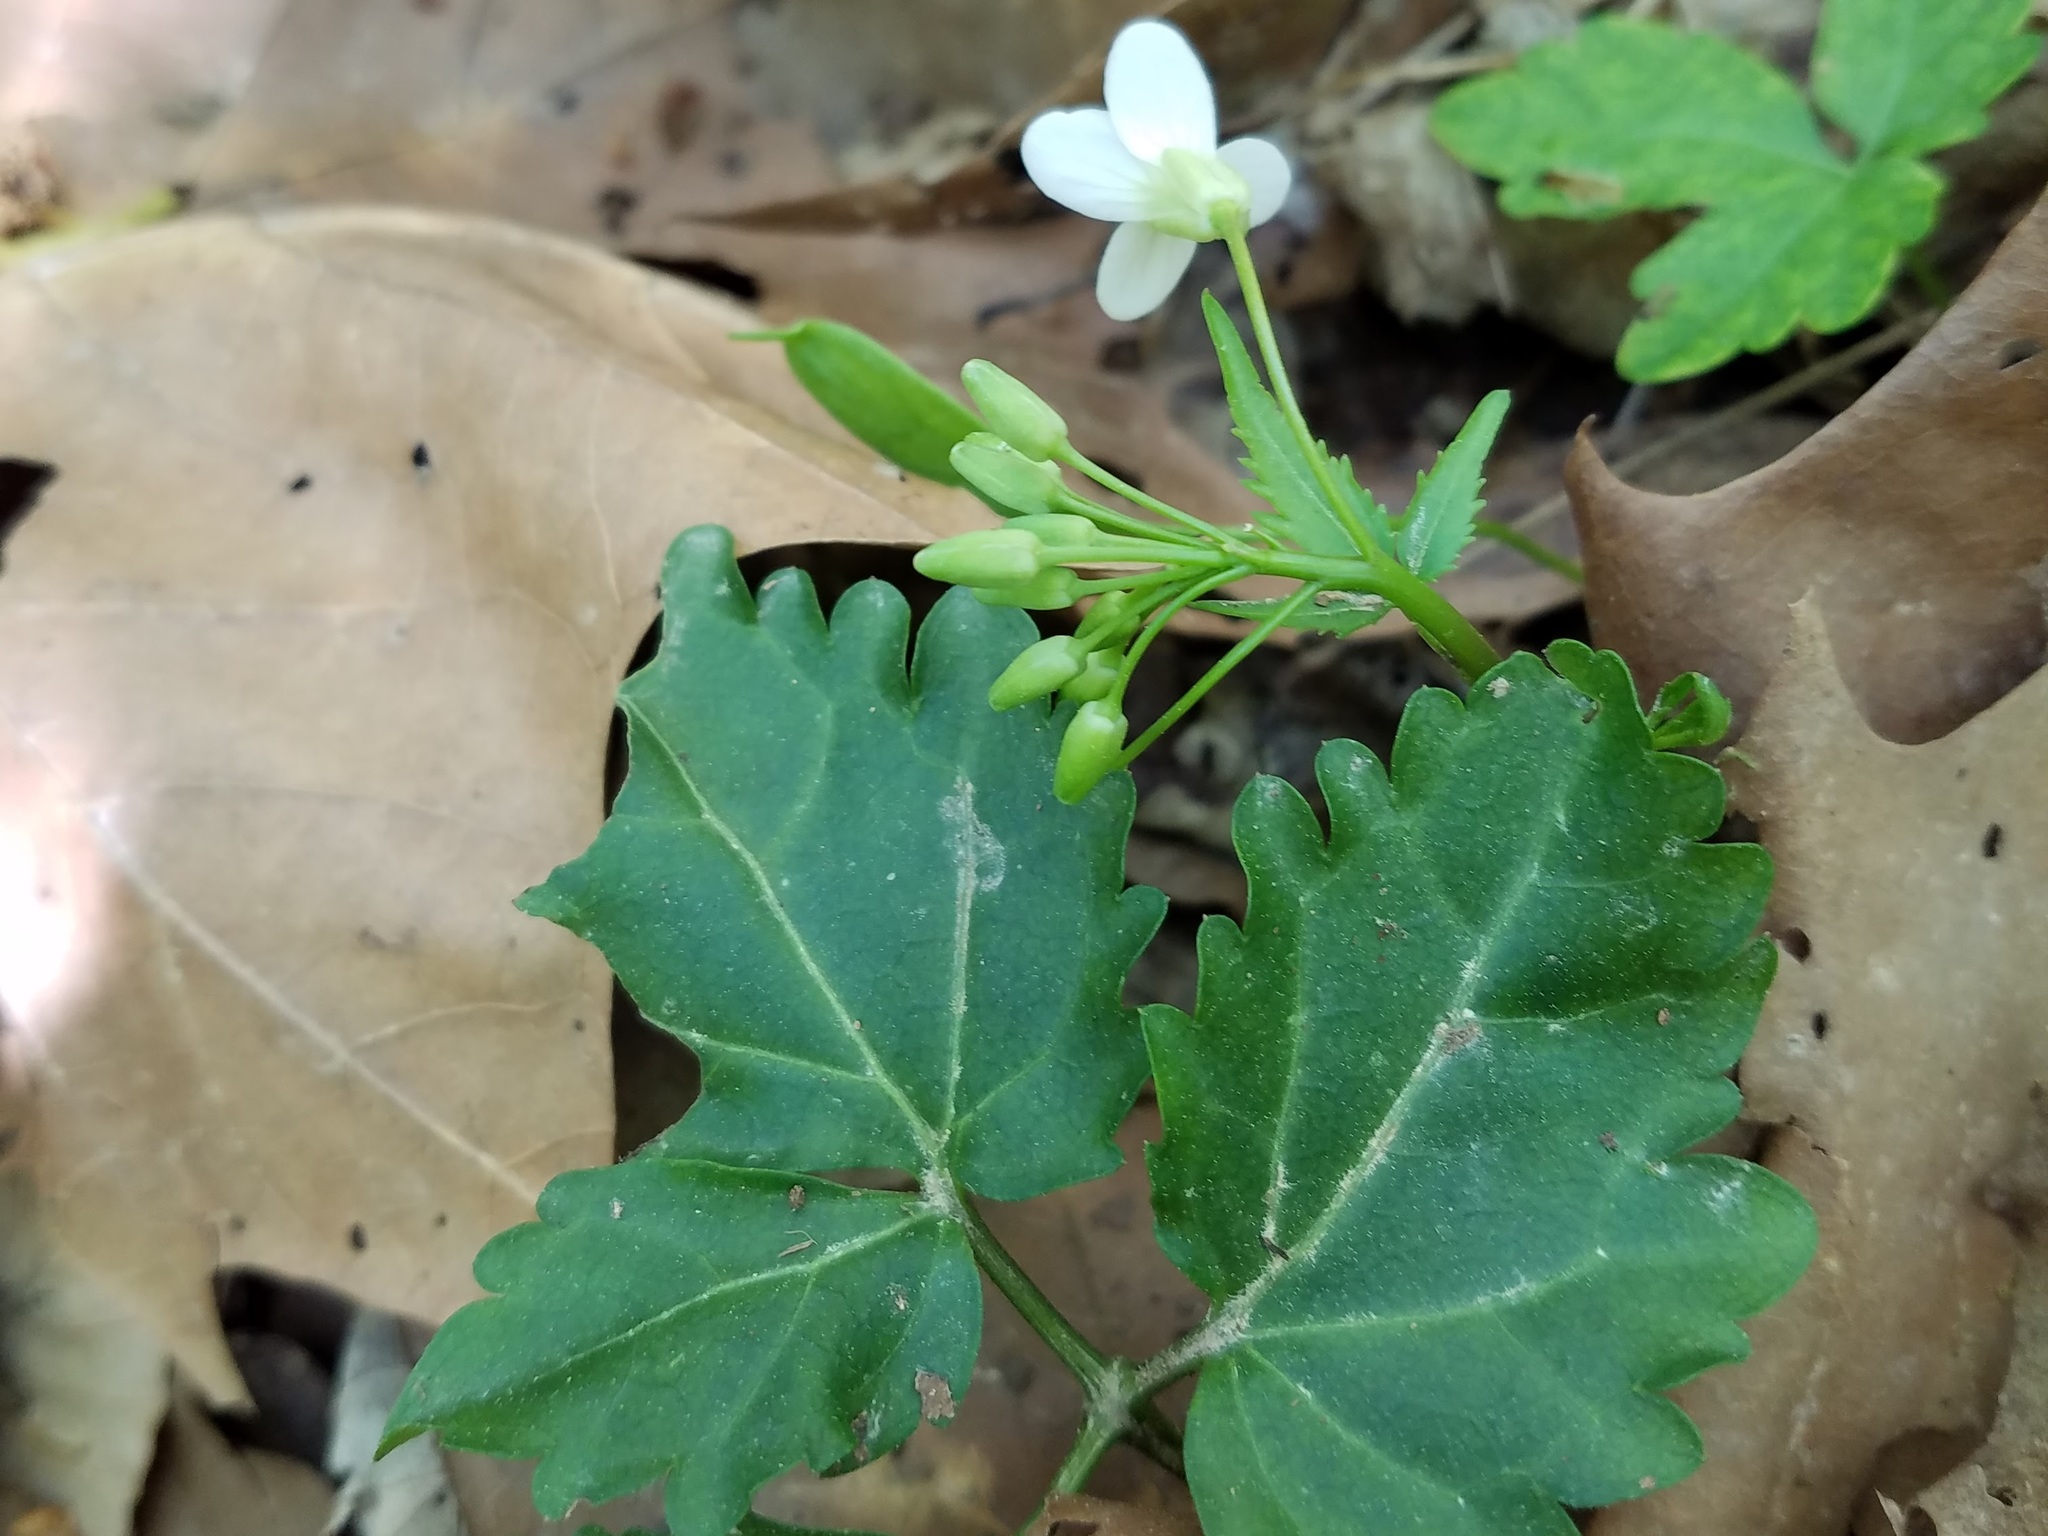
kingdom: Plantae
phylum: Tracheophyta
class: Magnoliopsida
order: Brassicales
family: Brassicaceae
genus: Cardamine
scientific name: Cardamine diphylla
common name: Broad-leaved toothwort
